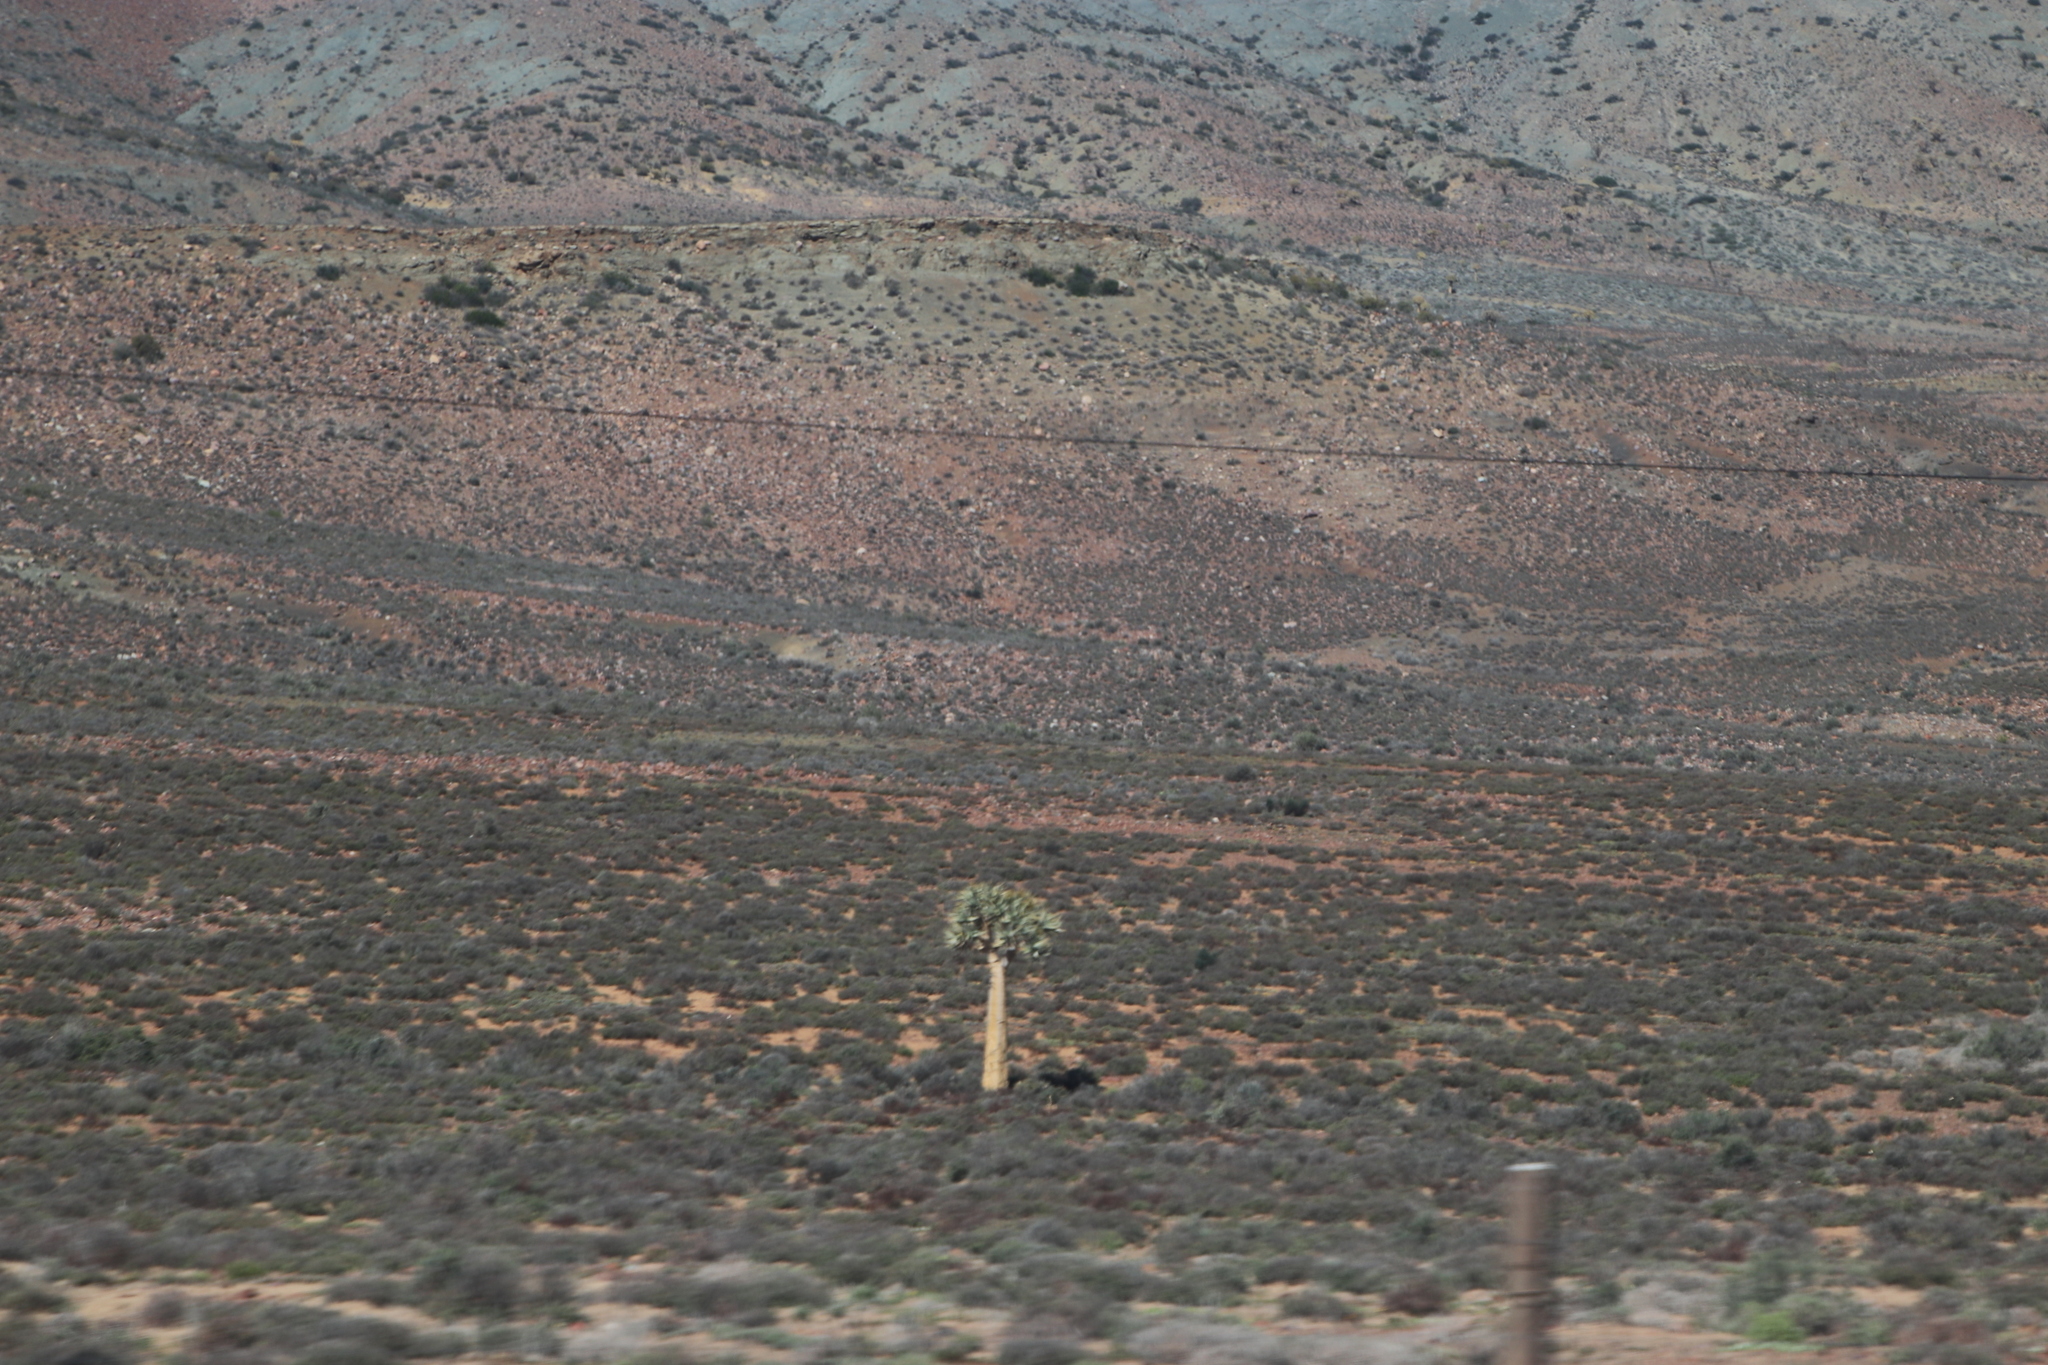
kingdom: Plantae
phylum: Tracheophyta
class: Liliopsida
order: Asparagales
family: Asphodelaceae
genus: Aloidendron
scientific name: Aloidendron dichotomum
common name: Quiver tree
